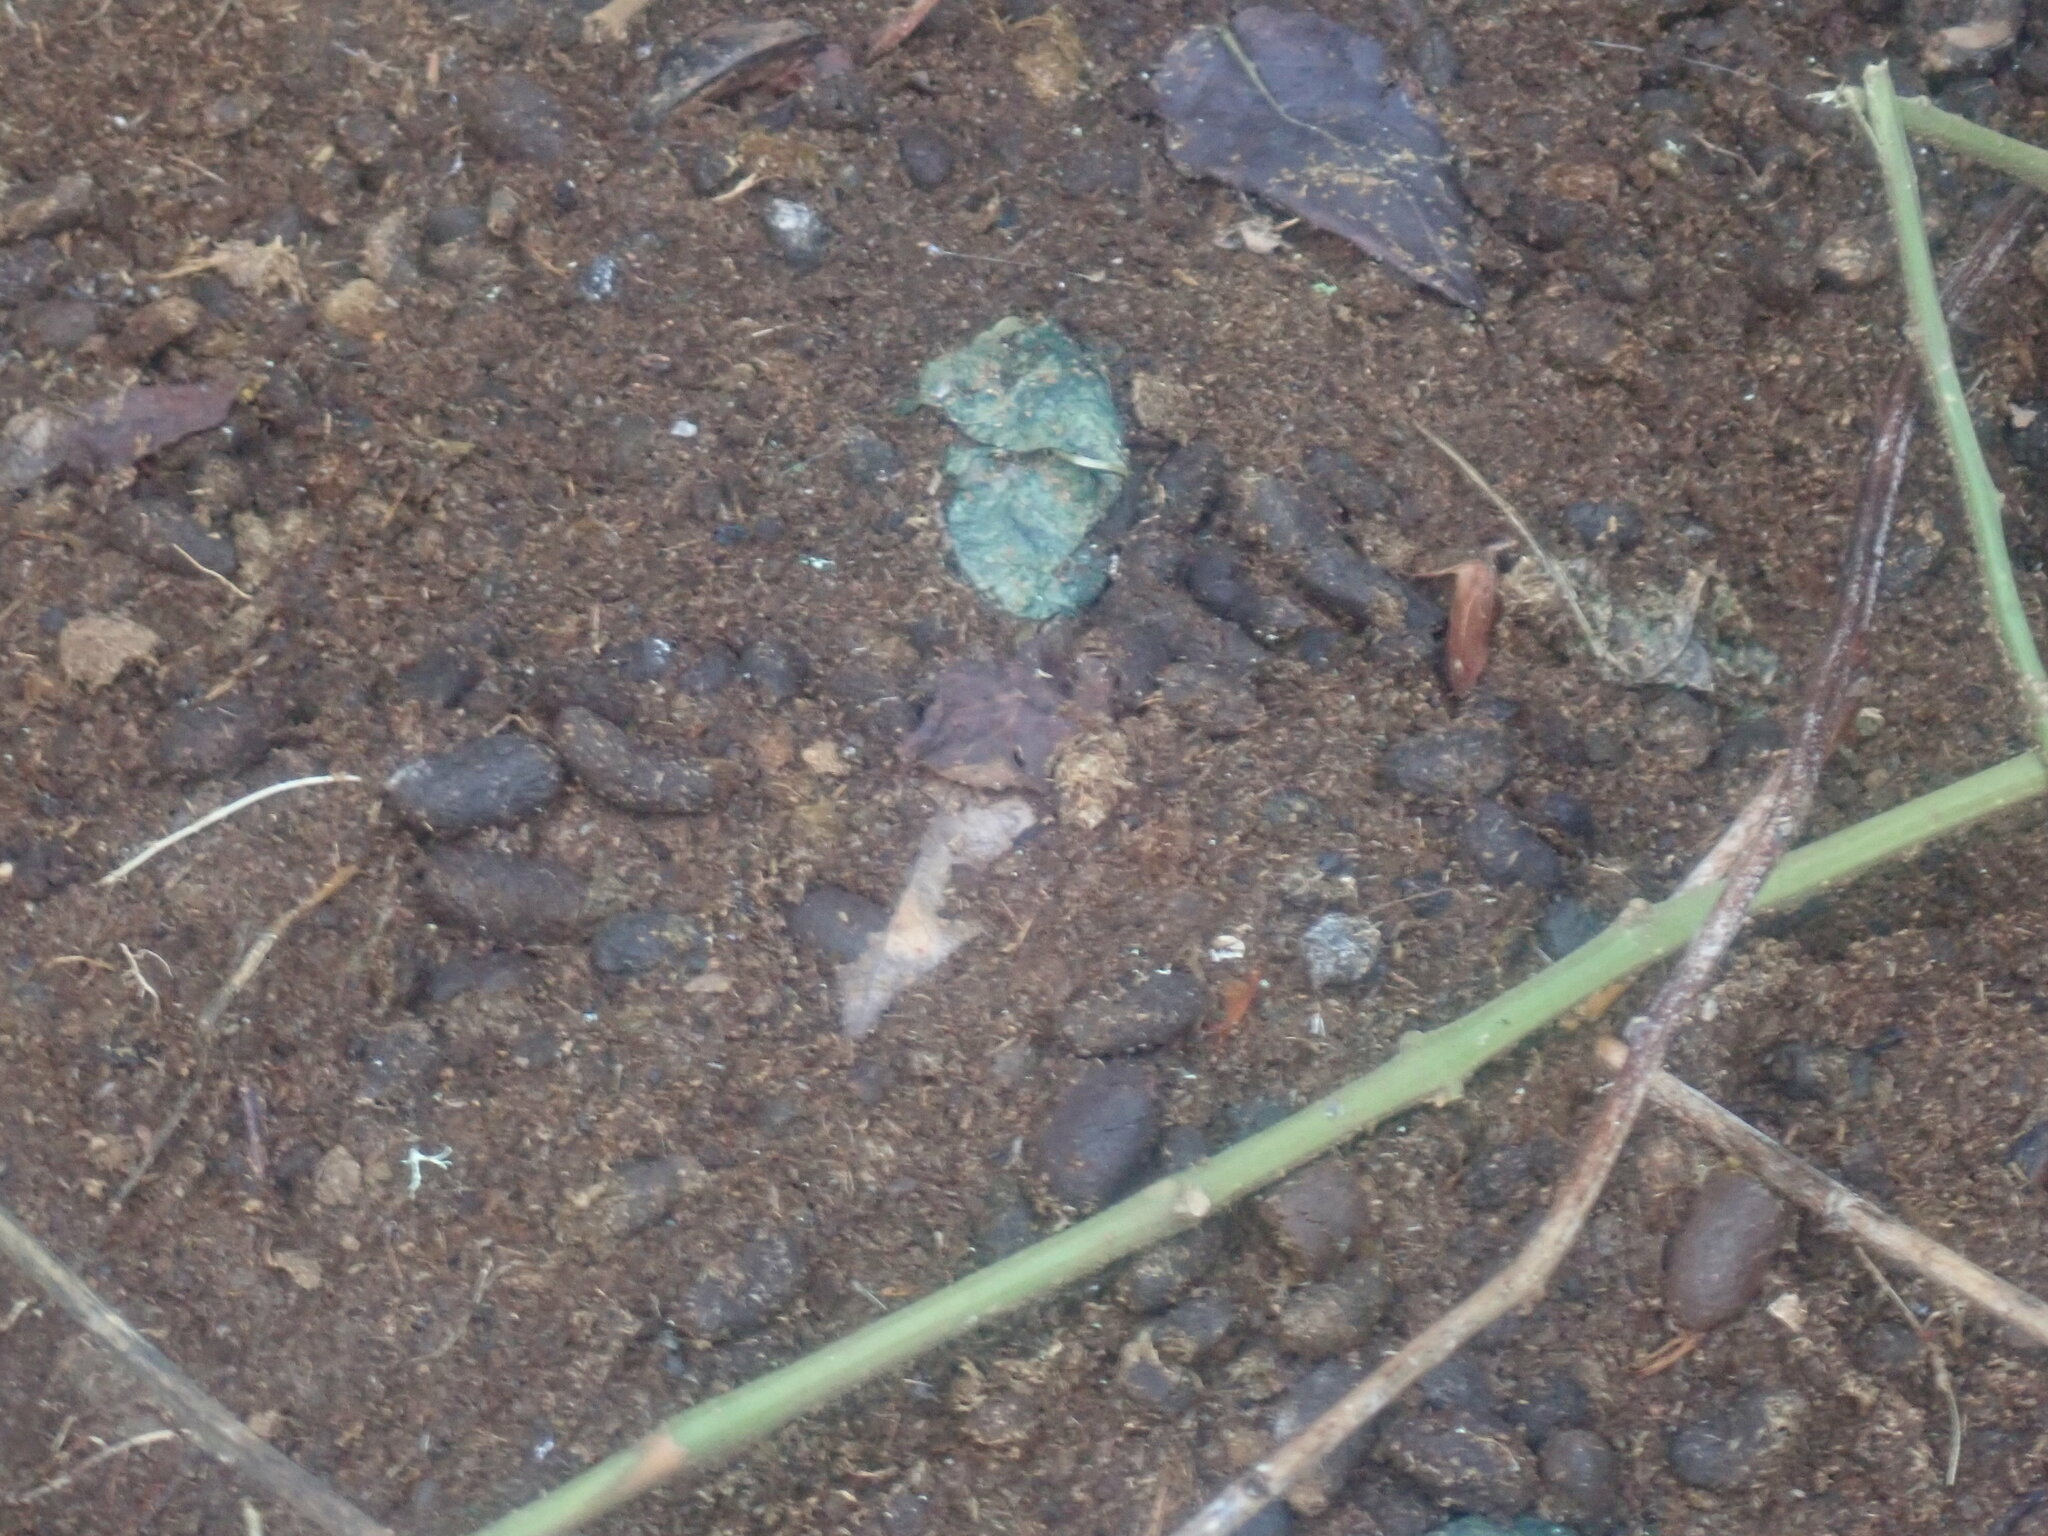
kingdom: Animalia
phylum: Chordata
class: Mammalia
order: Rodentia
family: Erethizontidae
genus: Erethizon
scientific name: Erethizon dorsatus
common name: North american porcupine
